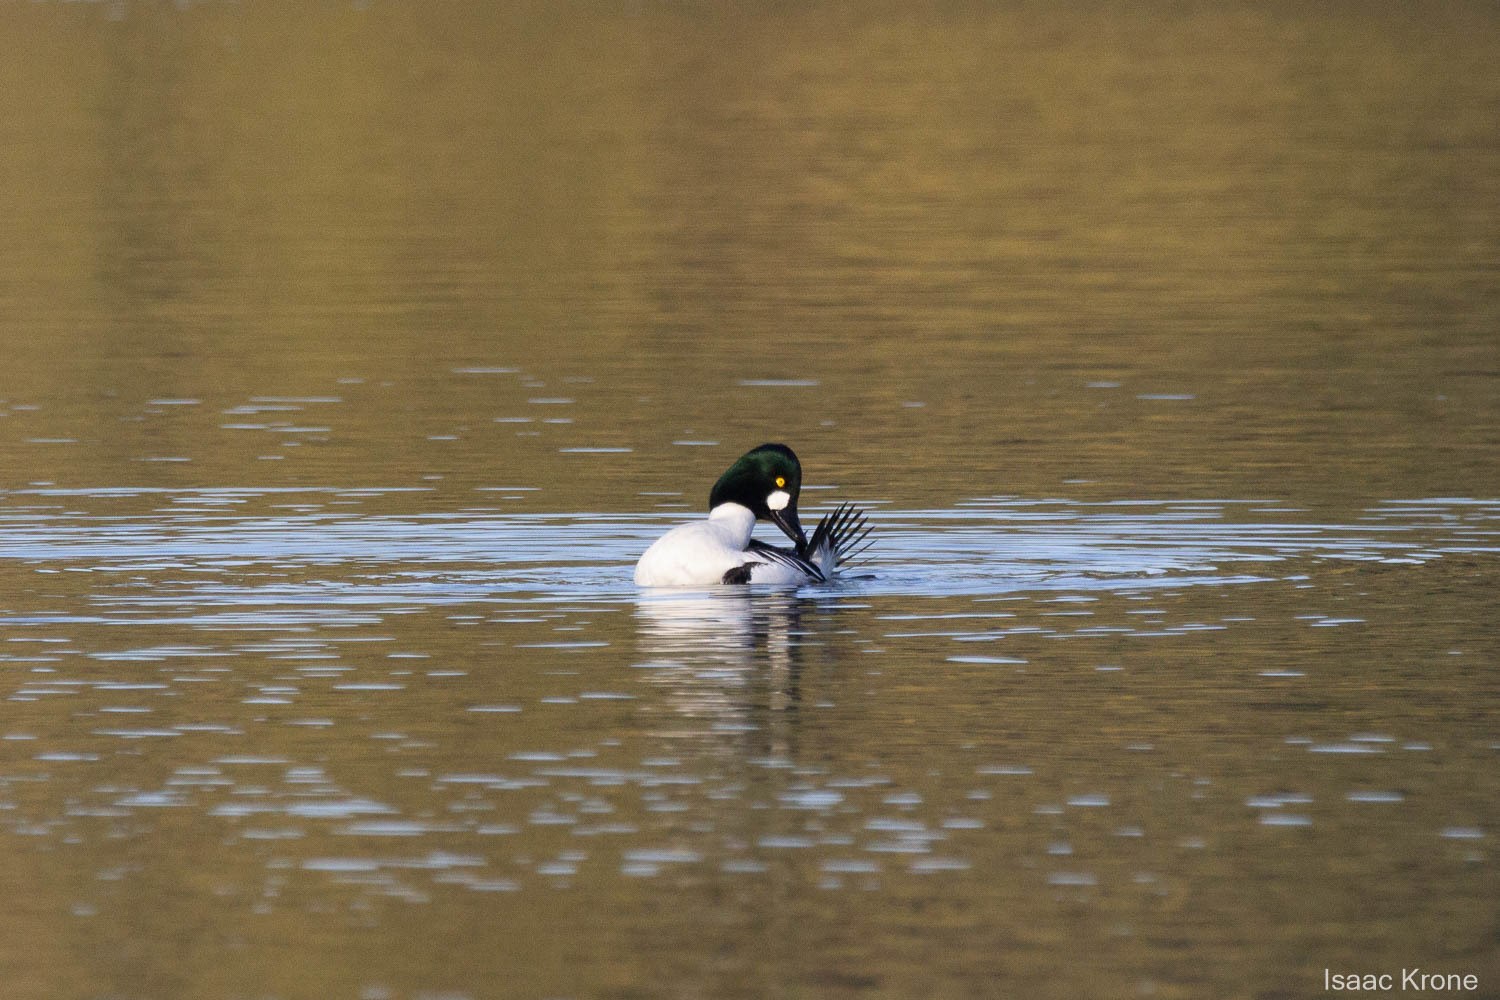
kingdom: Animalia
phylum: Chordata
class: Aves
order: Anseriformes
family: Anatidae
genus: Bucephala
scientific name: Bucephala clangula
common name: Common goldeneye
